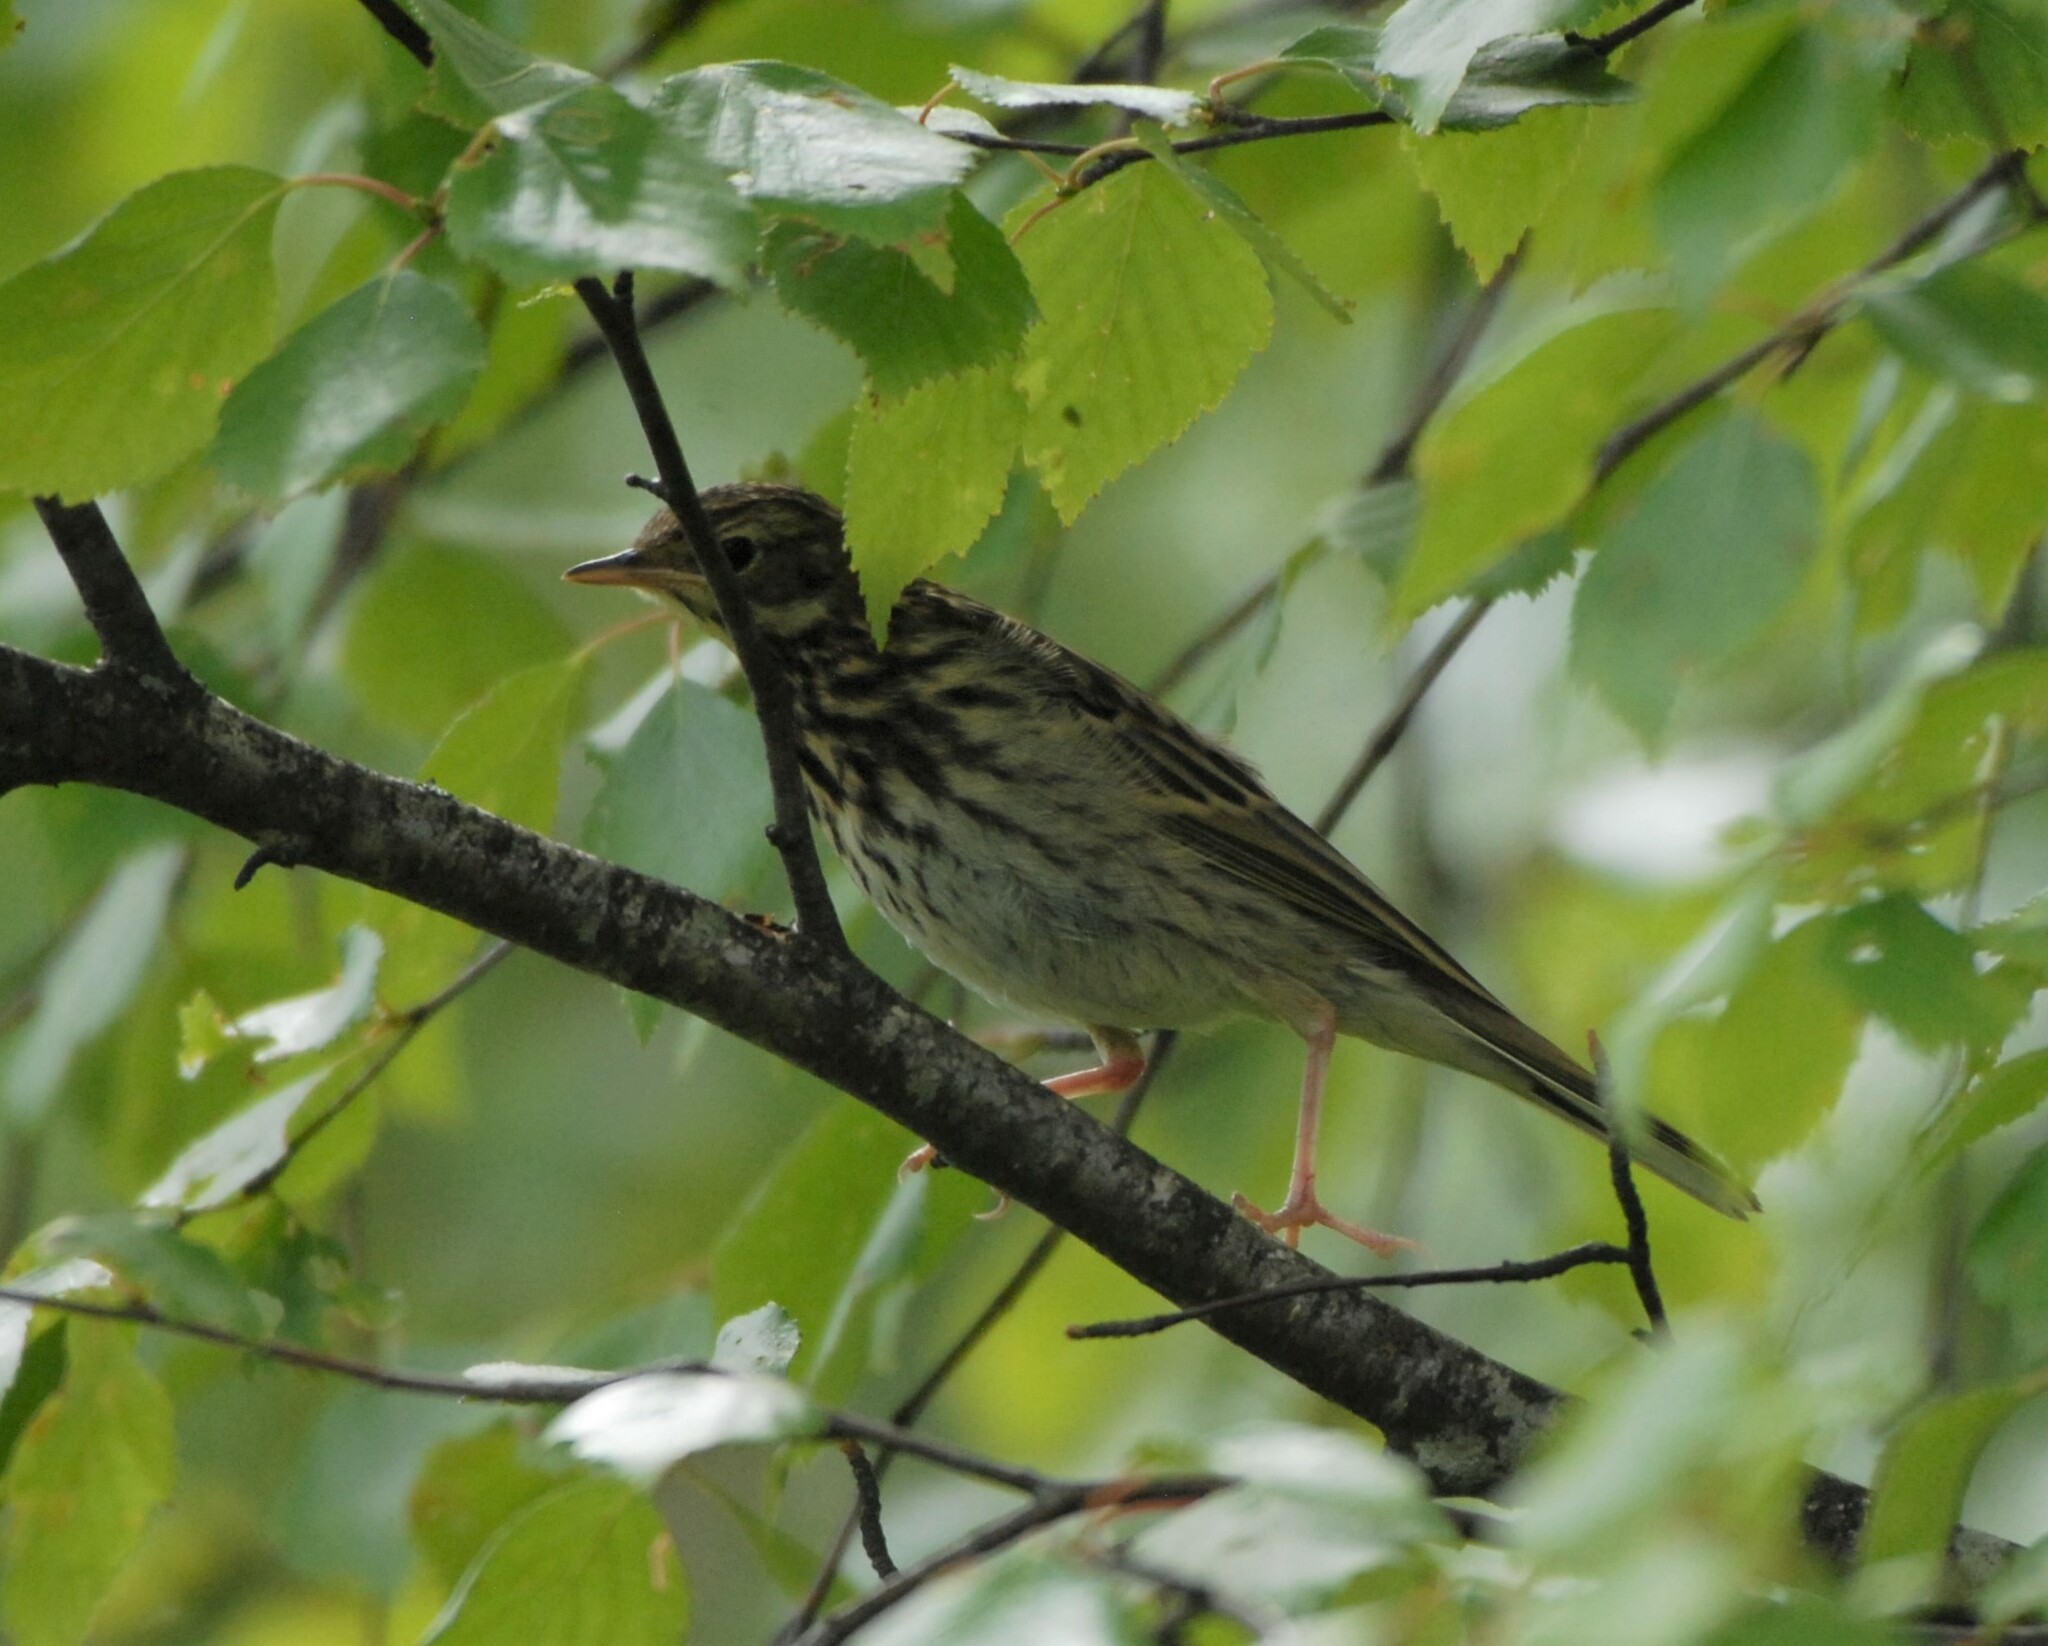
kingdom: Animalia
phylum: Chordata
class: Aves
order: Passeriformes
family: Motacillidae
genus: Anthus
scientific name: Anthus trivialis
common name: Tree pipit
